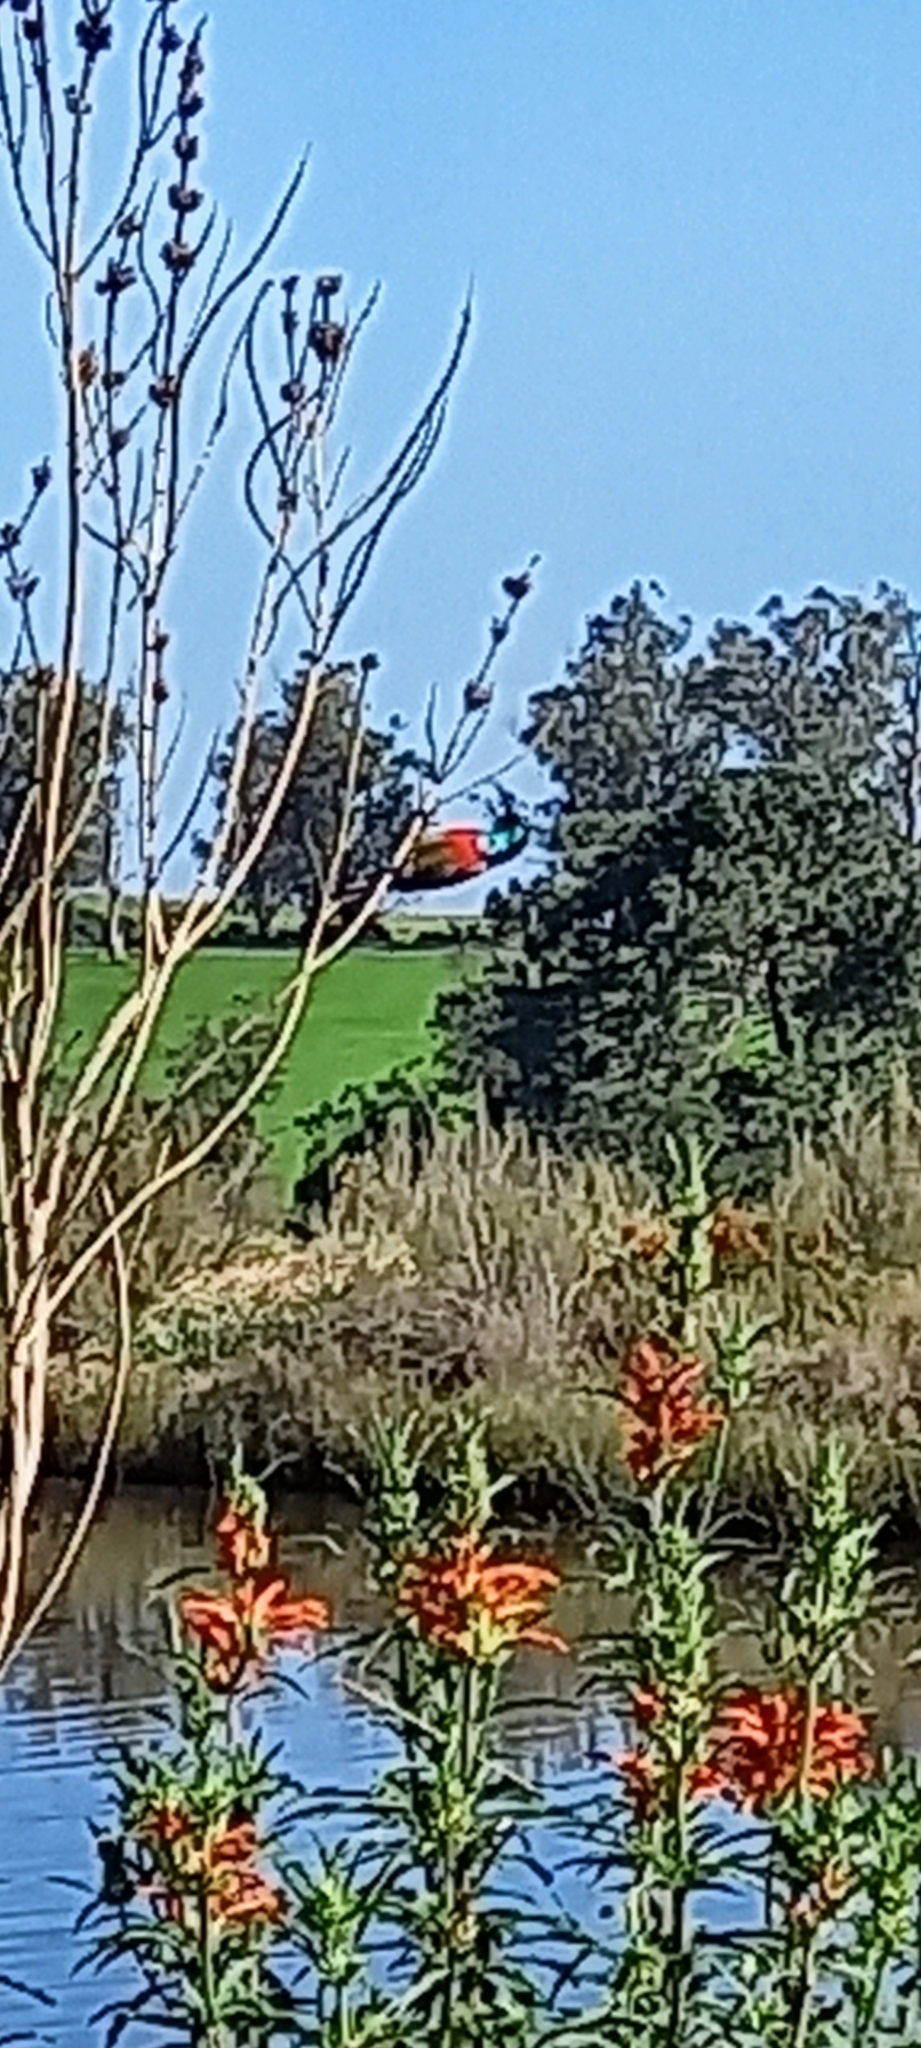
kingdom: Animalia
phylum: Chordata
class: Aves
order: Passeriformes
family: Nectariniidae
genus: Cinnyris
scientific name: Cinnyris afer
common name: Greater double-collared sunbird
